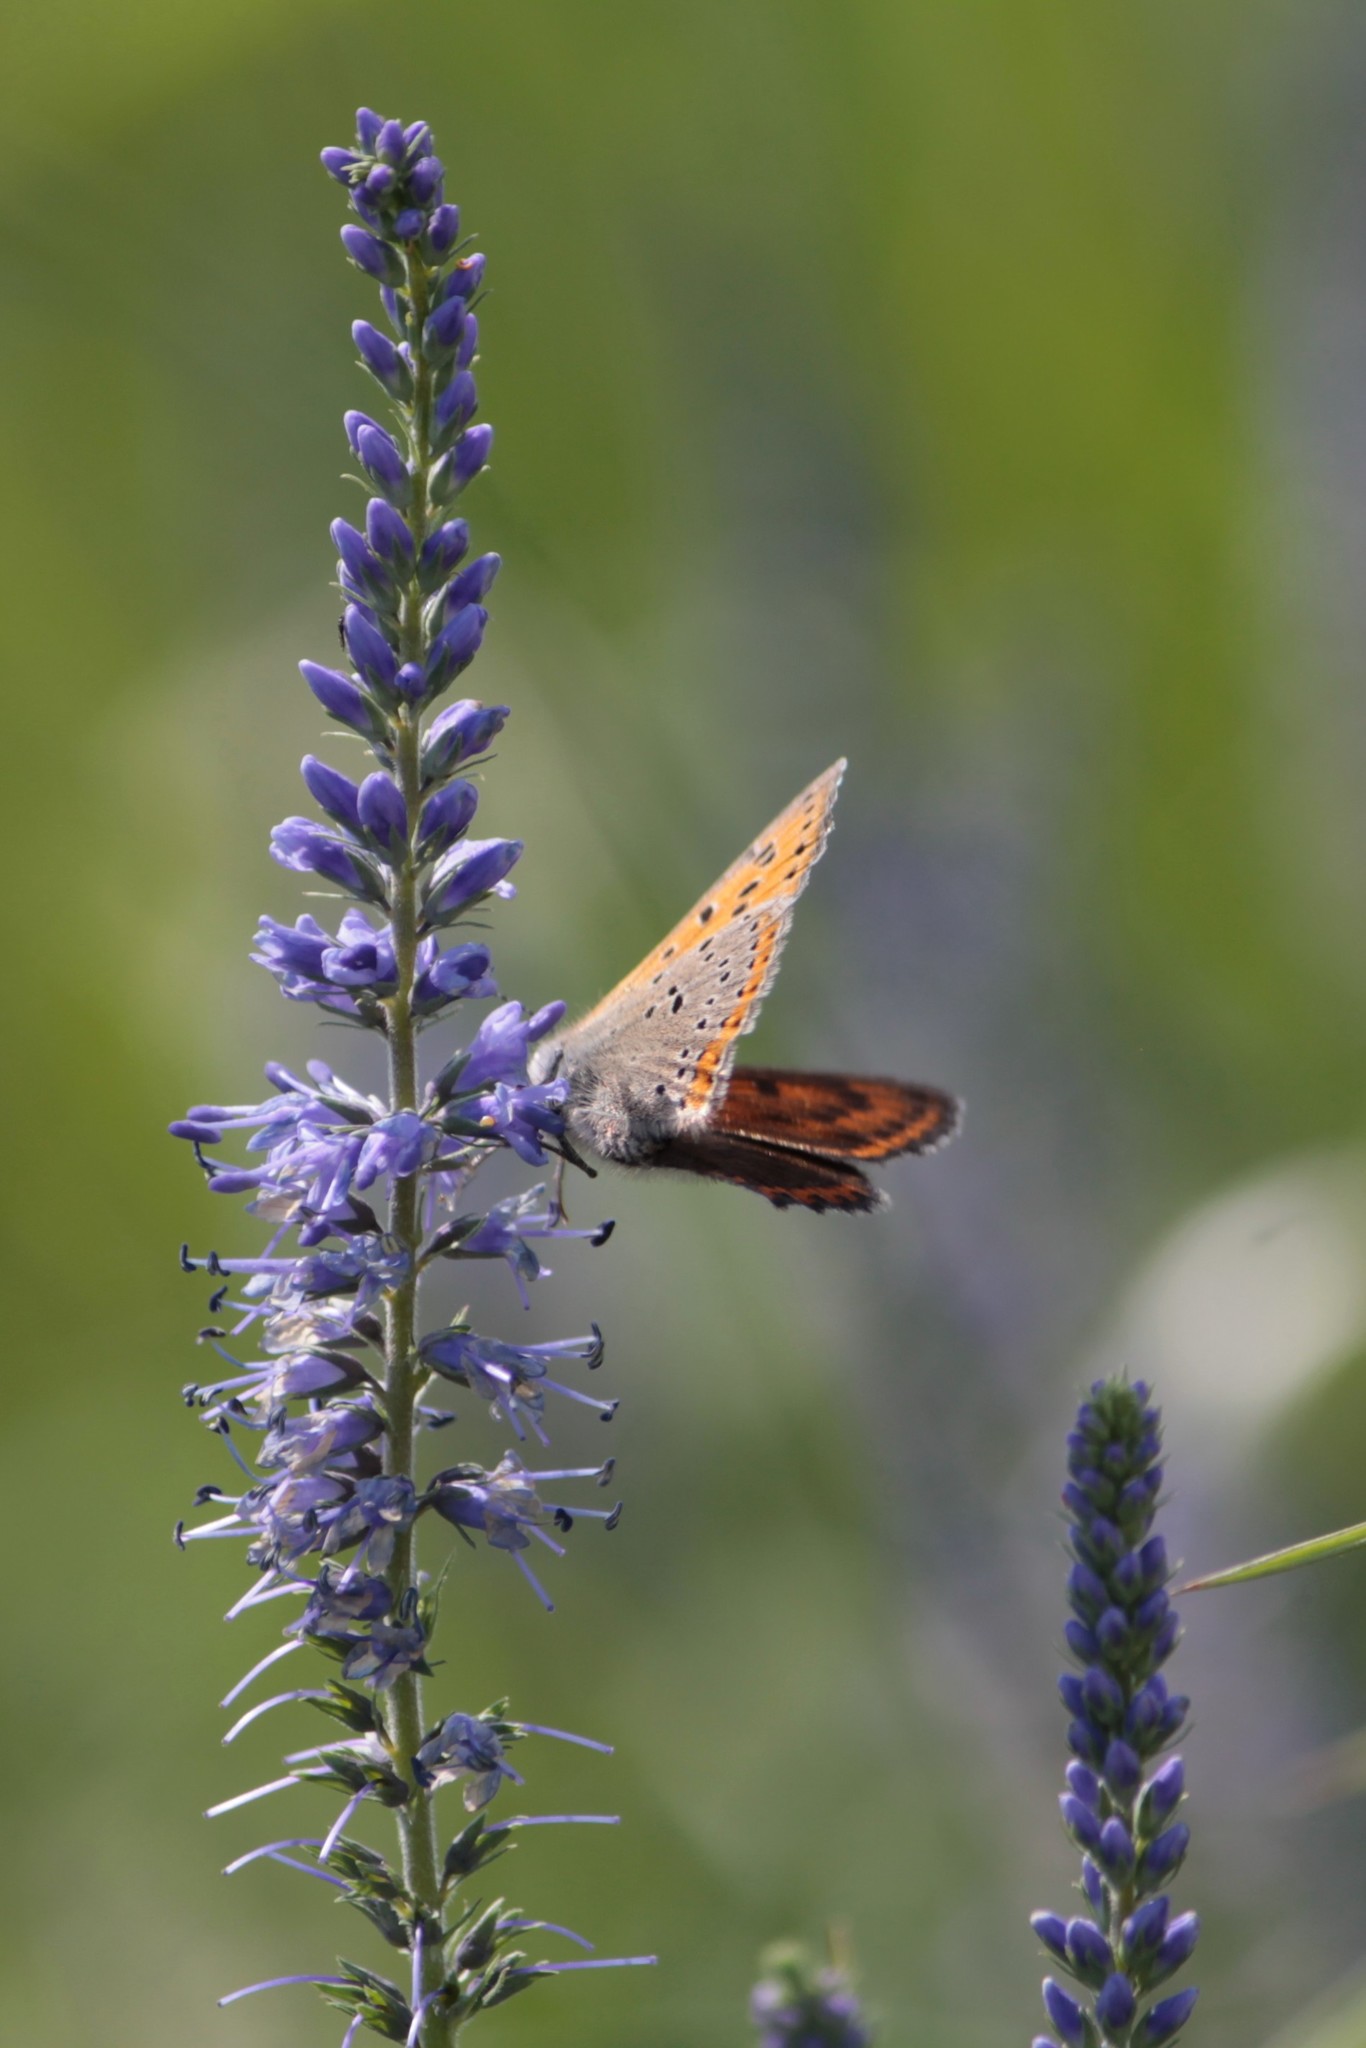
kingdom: Animalia
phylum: Arthropoda
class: Insecta
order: Lepidoptera
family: Lycaenidae
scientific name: Lycaenidae
